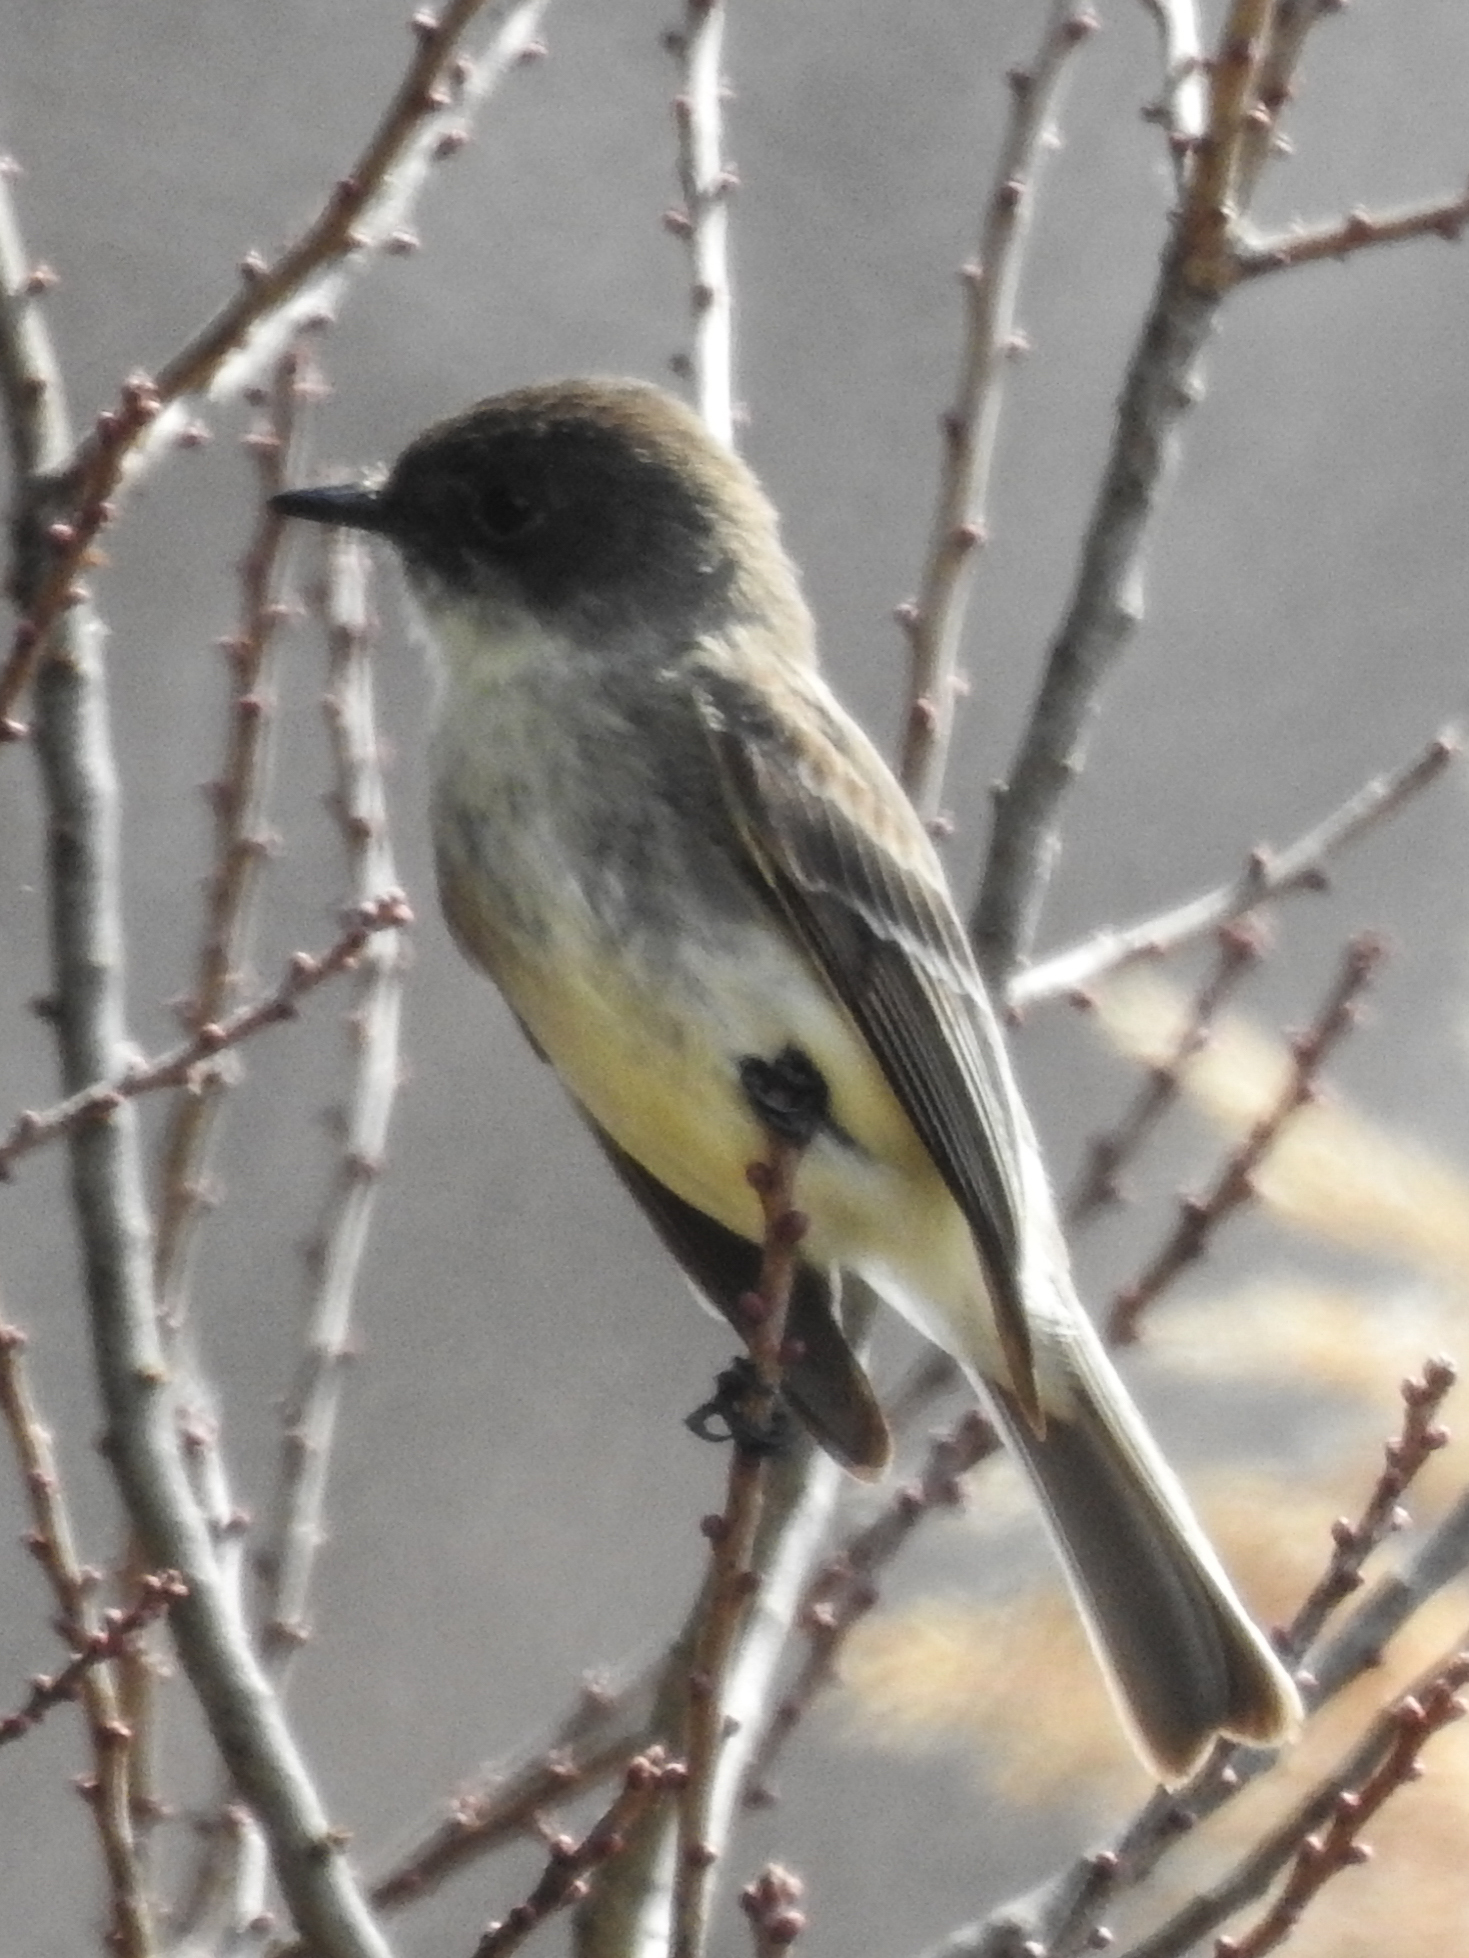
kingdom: Animalia
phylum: Chordata
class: Aves
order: Passeriformes
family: Tyrannidae
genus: Sayornis
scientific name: Sayornis phoebe
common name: Eastern phoebe
